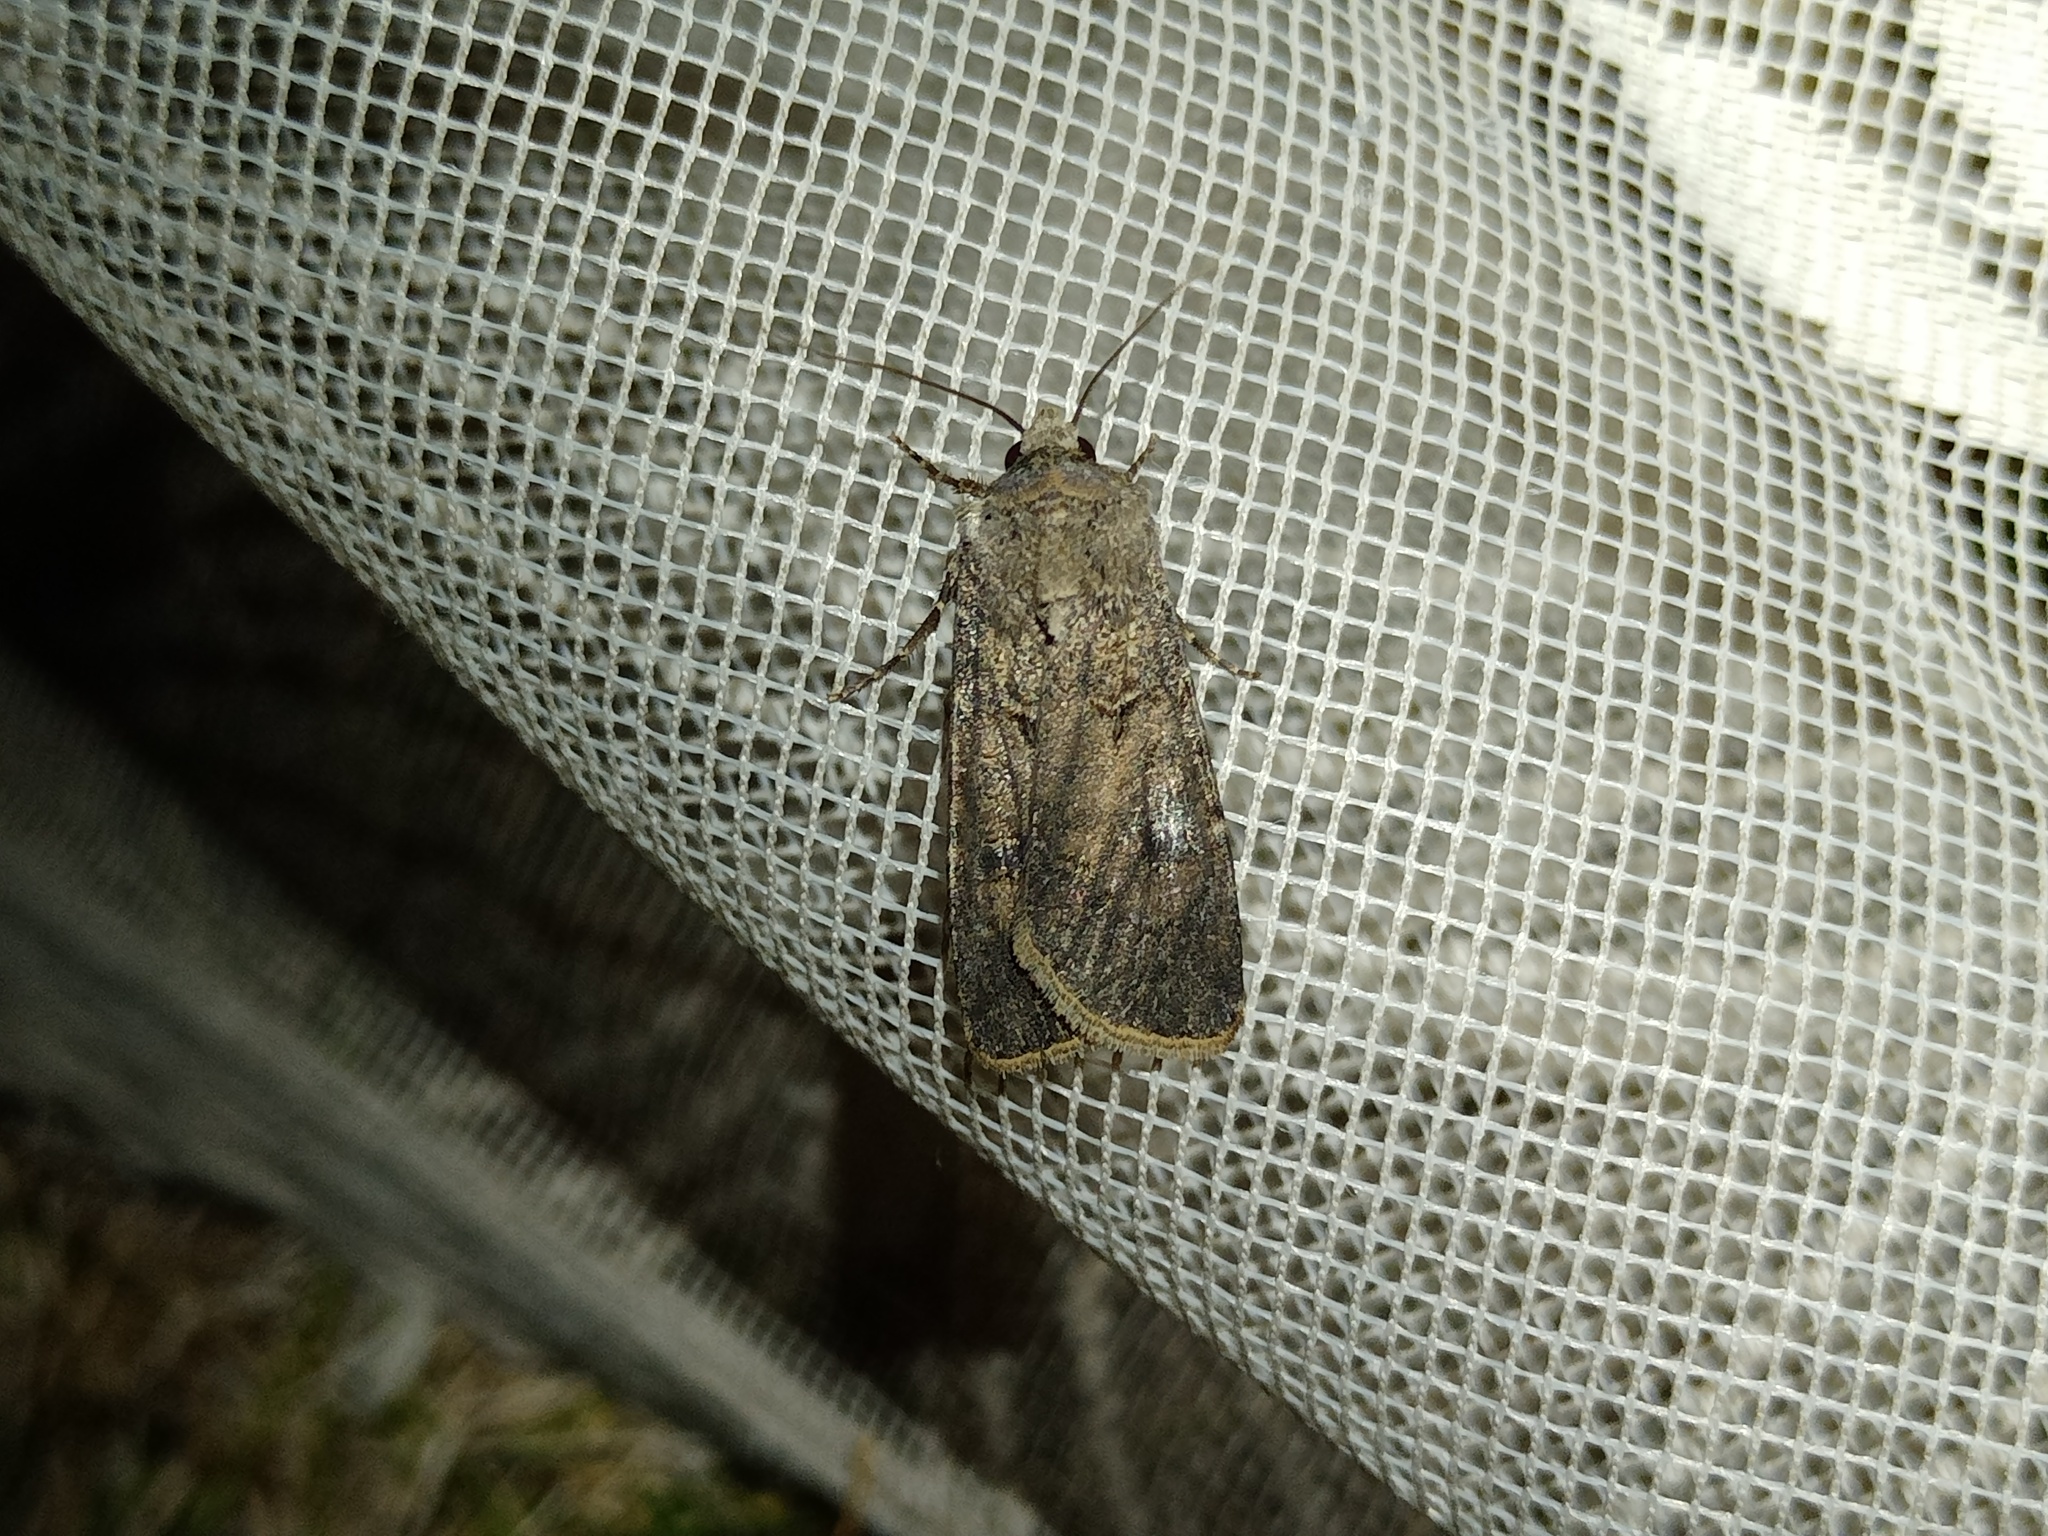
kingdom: Animalia
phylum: Arthropoda
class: Insecta
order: Lepidoptera
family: Noctuidae
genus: Agrotis
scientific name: Agrotis segetum
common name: Turnip moth
